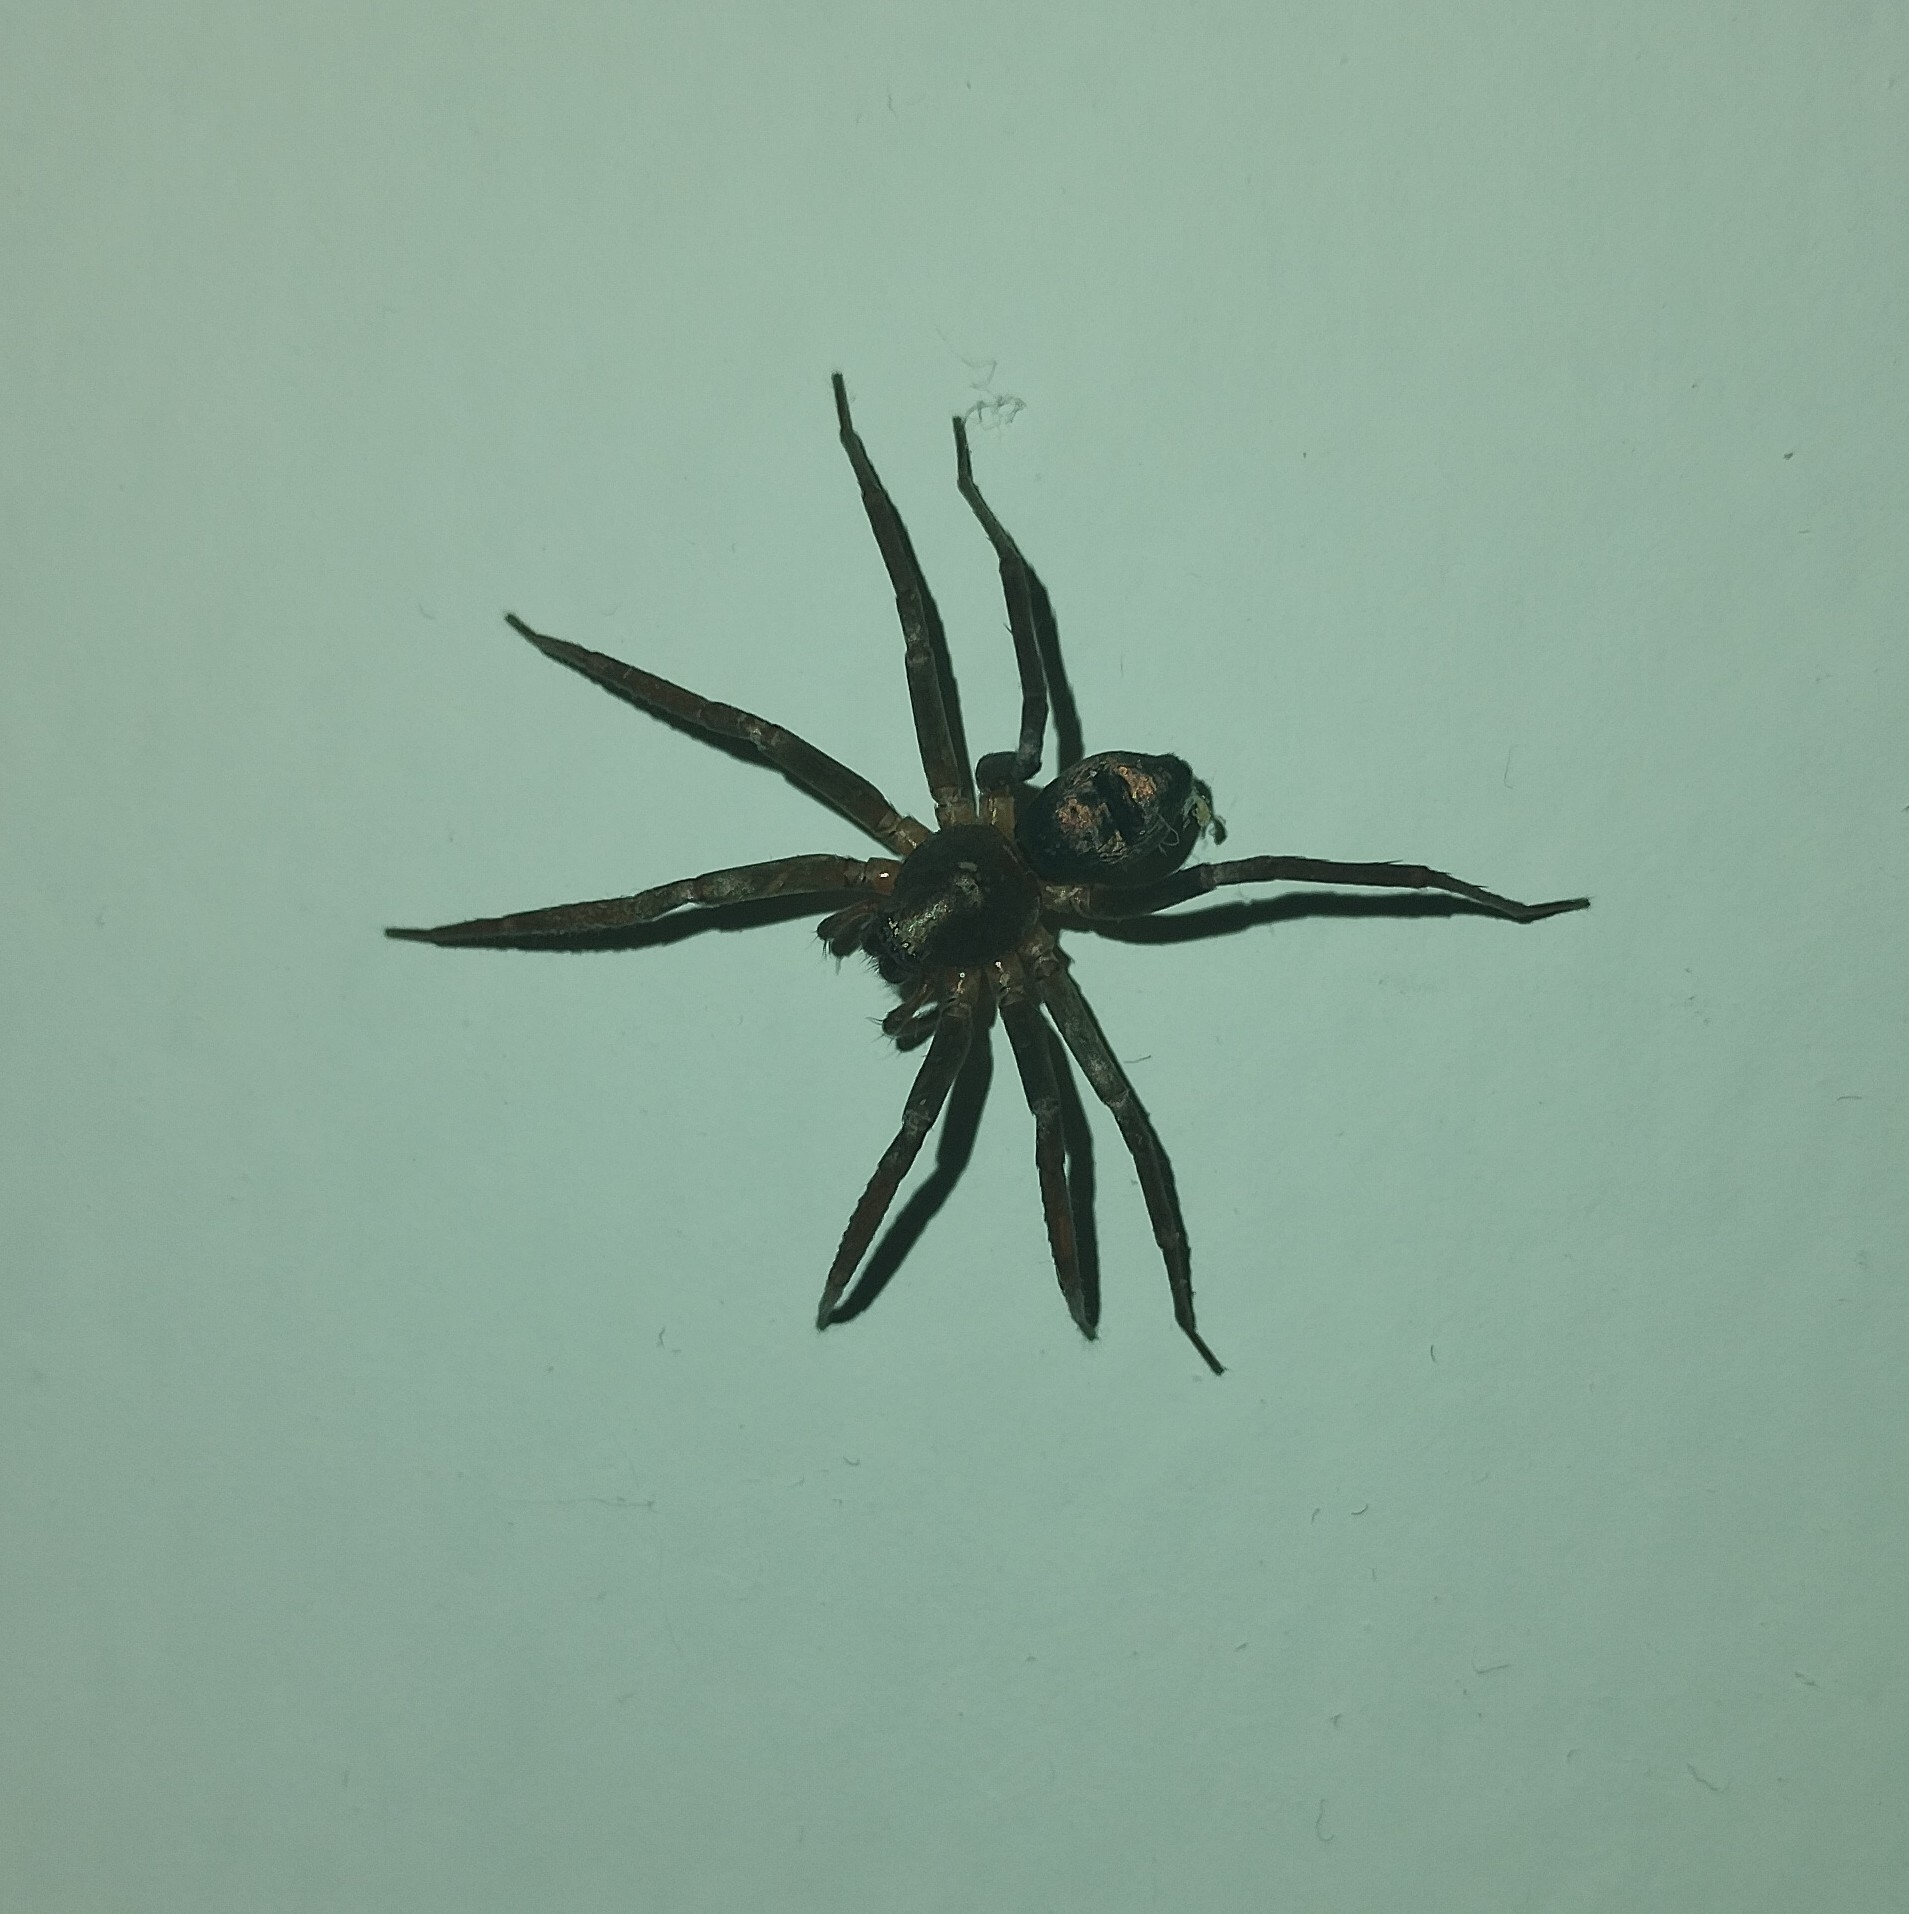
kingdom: Animalia
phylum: Arthropoda
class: Arachnida
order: Araneae
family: Liocranidae
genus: Sagana
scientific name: Sagana rutilans
